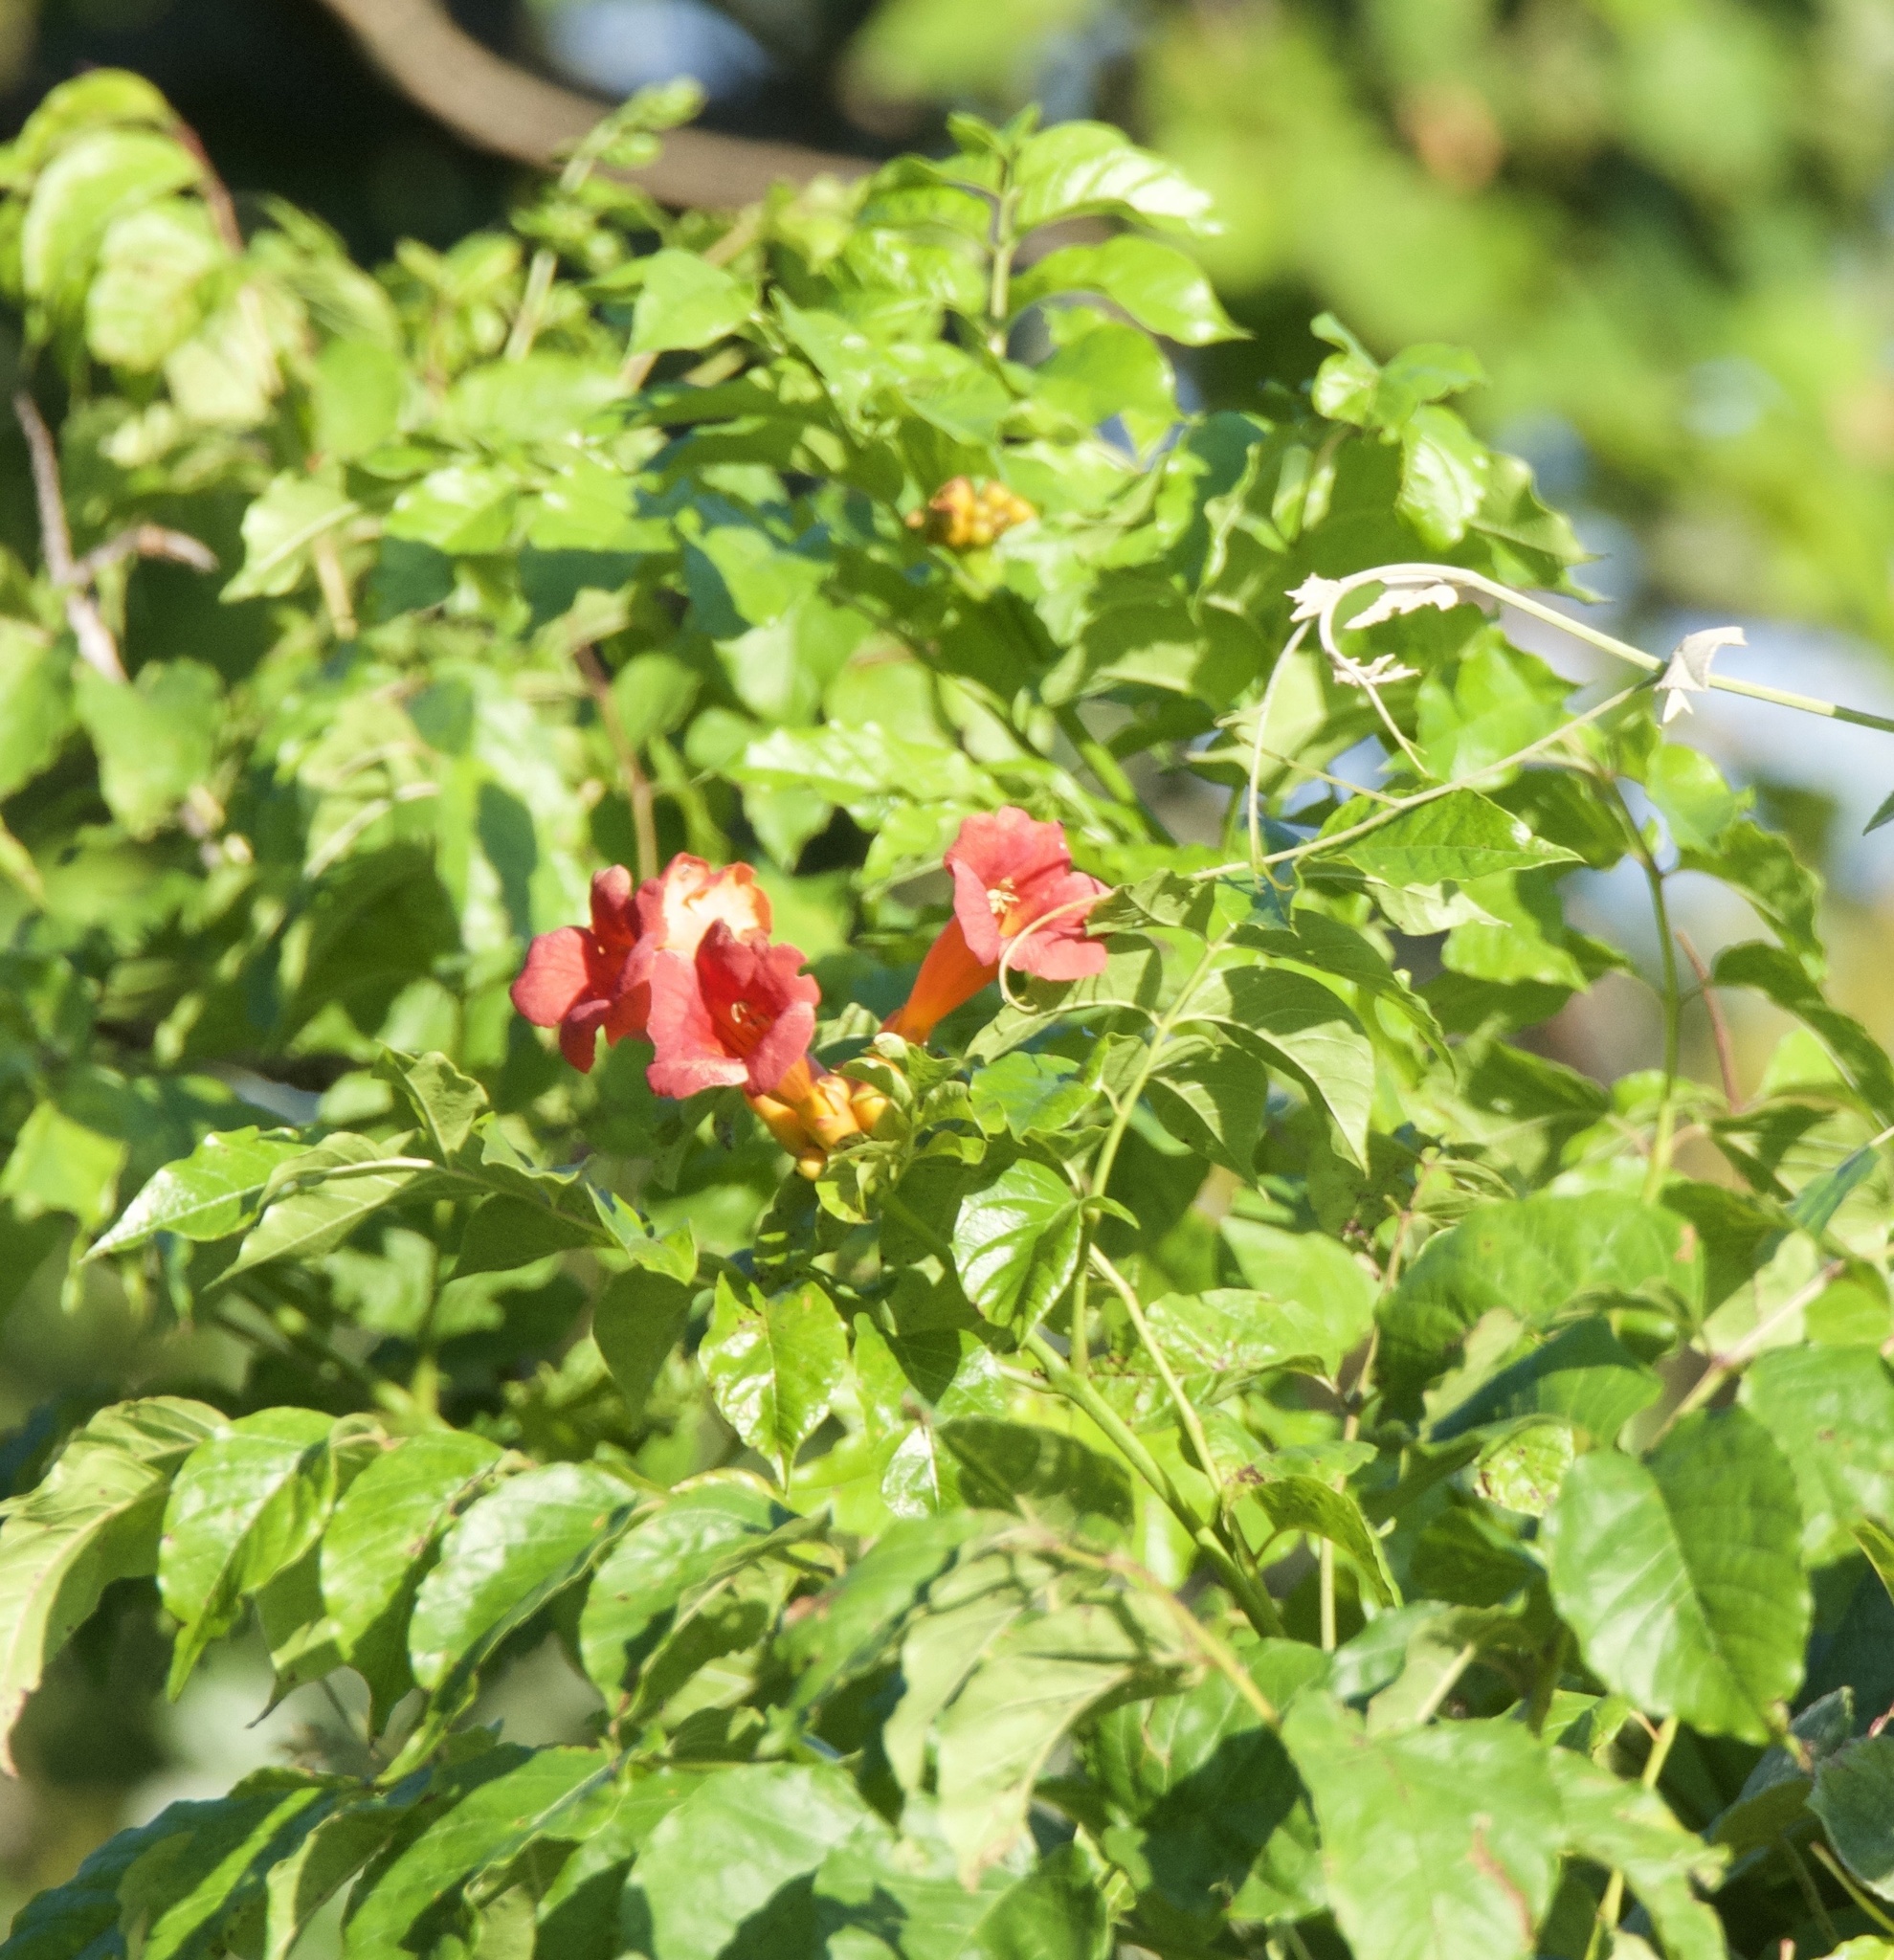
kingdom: Plantae
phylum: Tracheophyta
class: Magnoliopsida
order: Lamiales
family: Bignoniaceae
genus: Campsis
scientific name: Campsis radicans
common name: Trumpet-creeper
